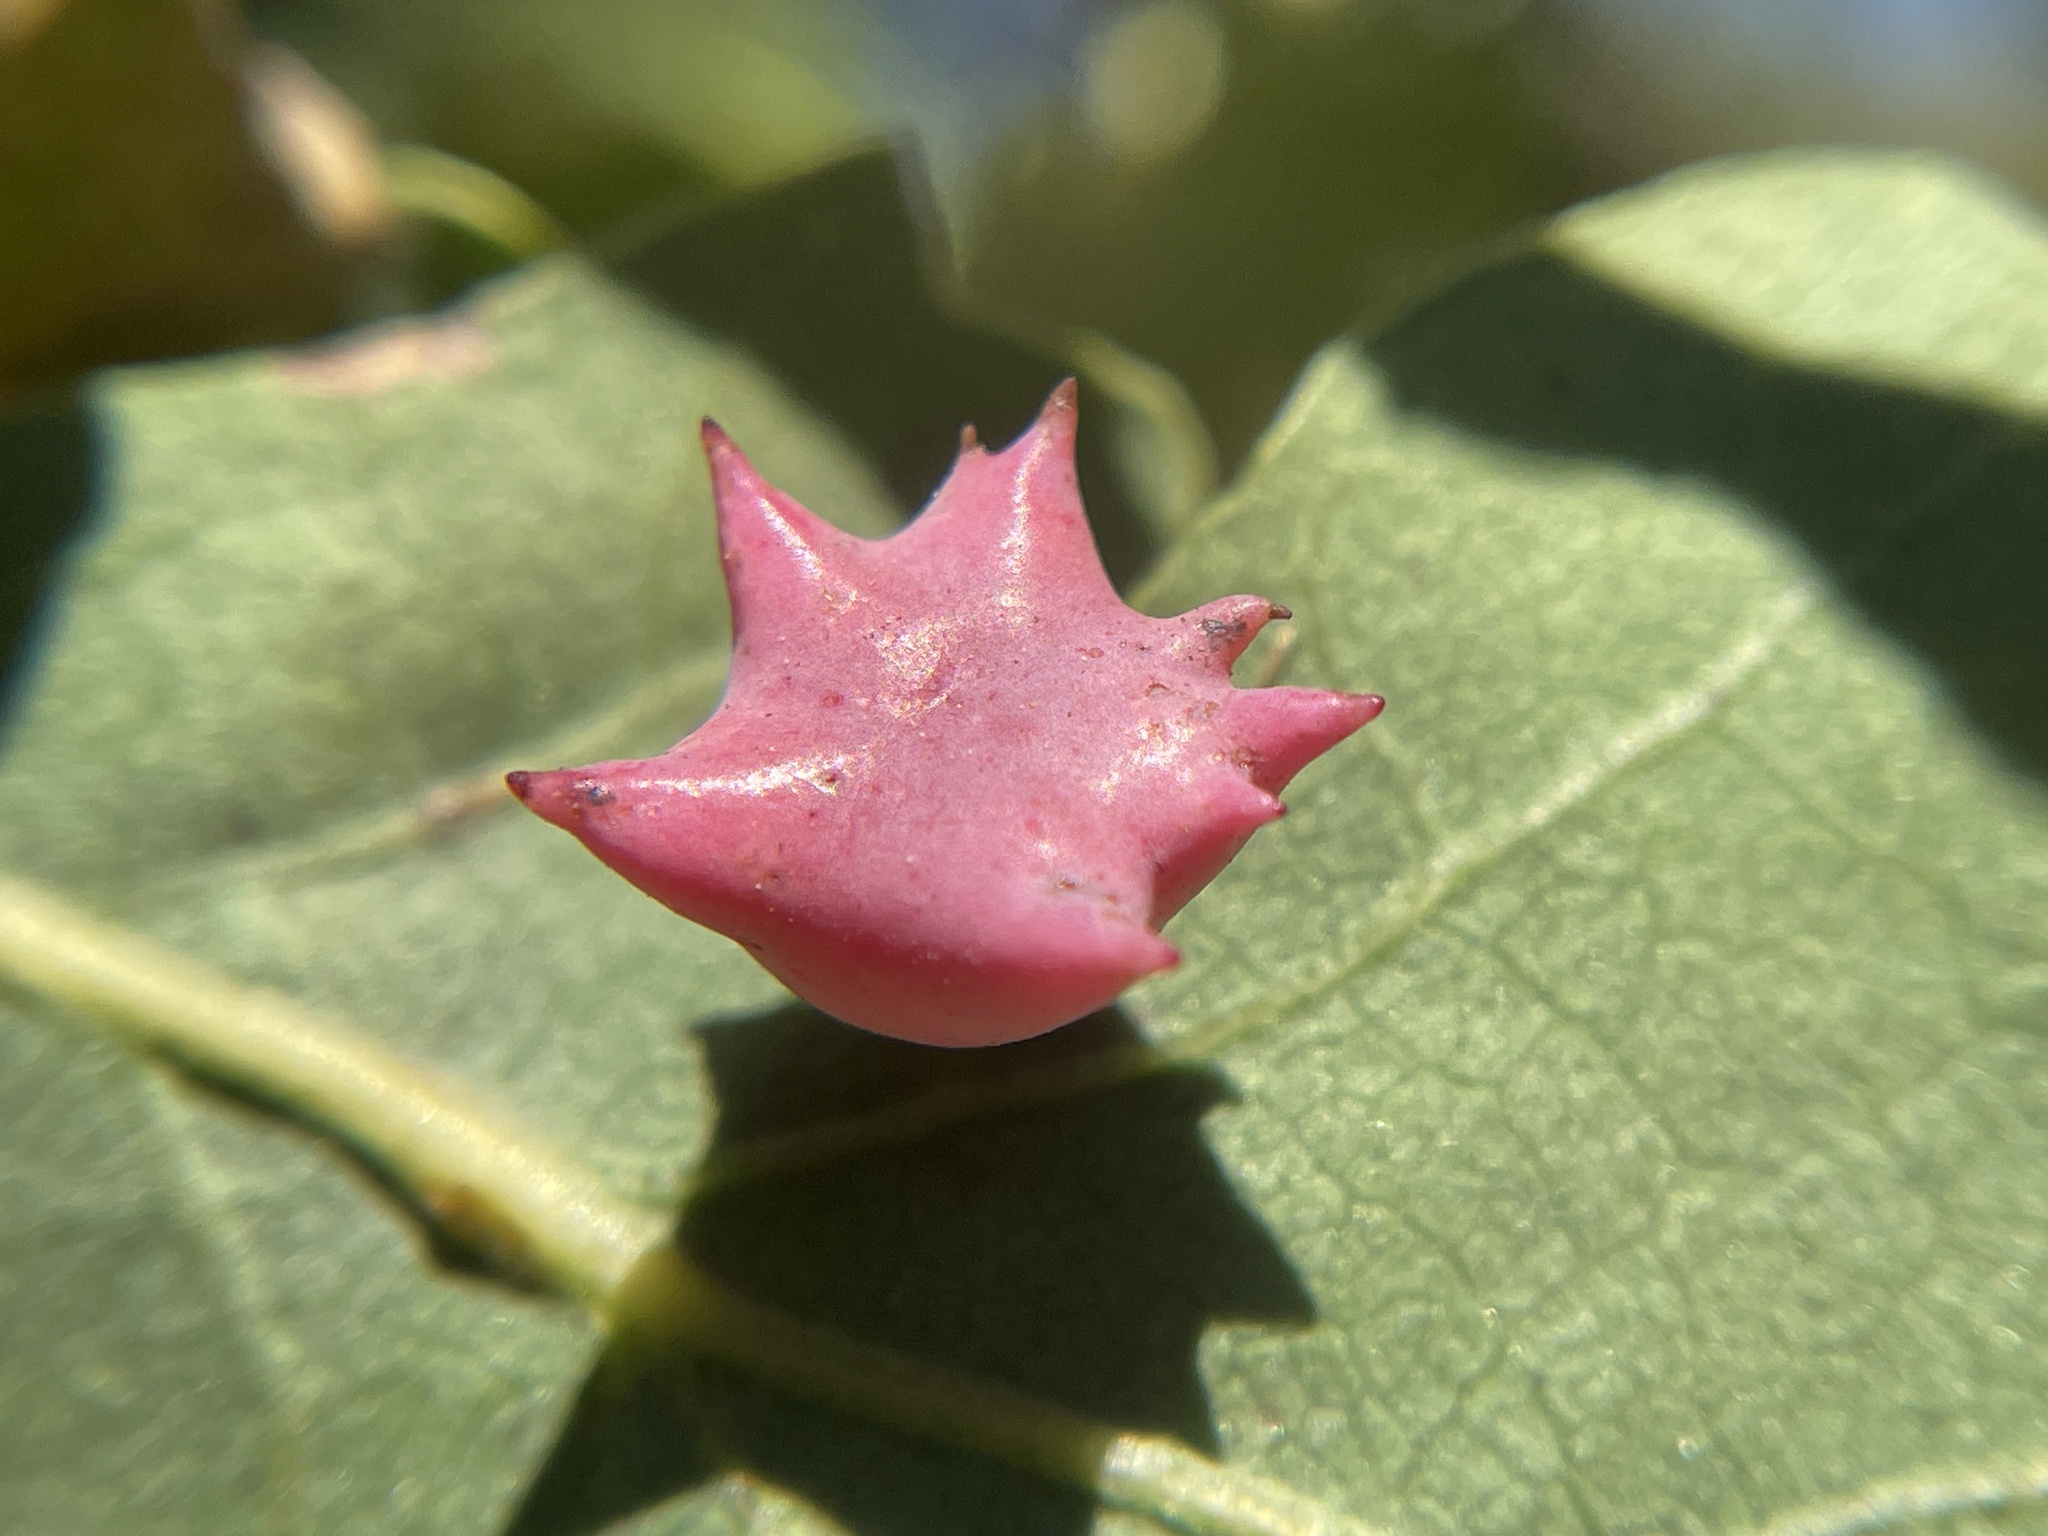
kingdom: Animalia
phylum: Arthropoda
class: Insecta
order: Hymenoptera
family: Cynipidae
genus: Cynips
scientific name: Cynips douglasi
